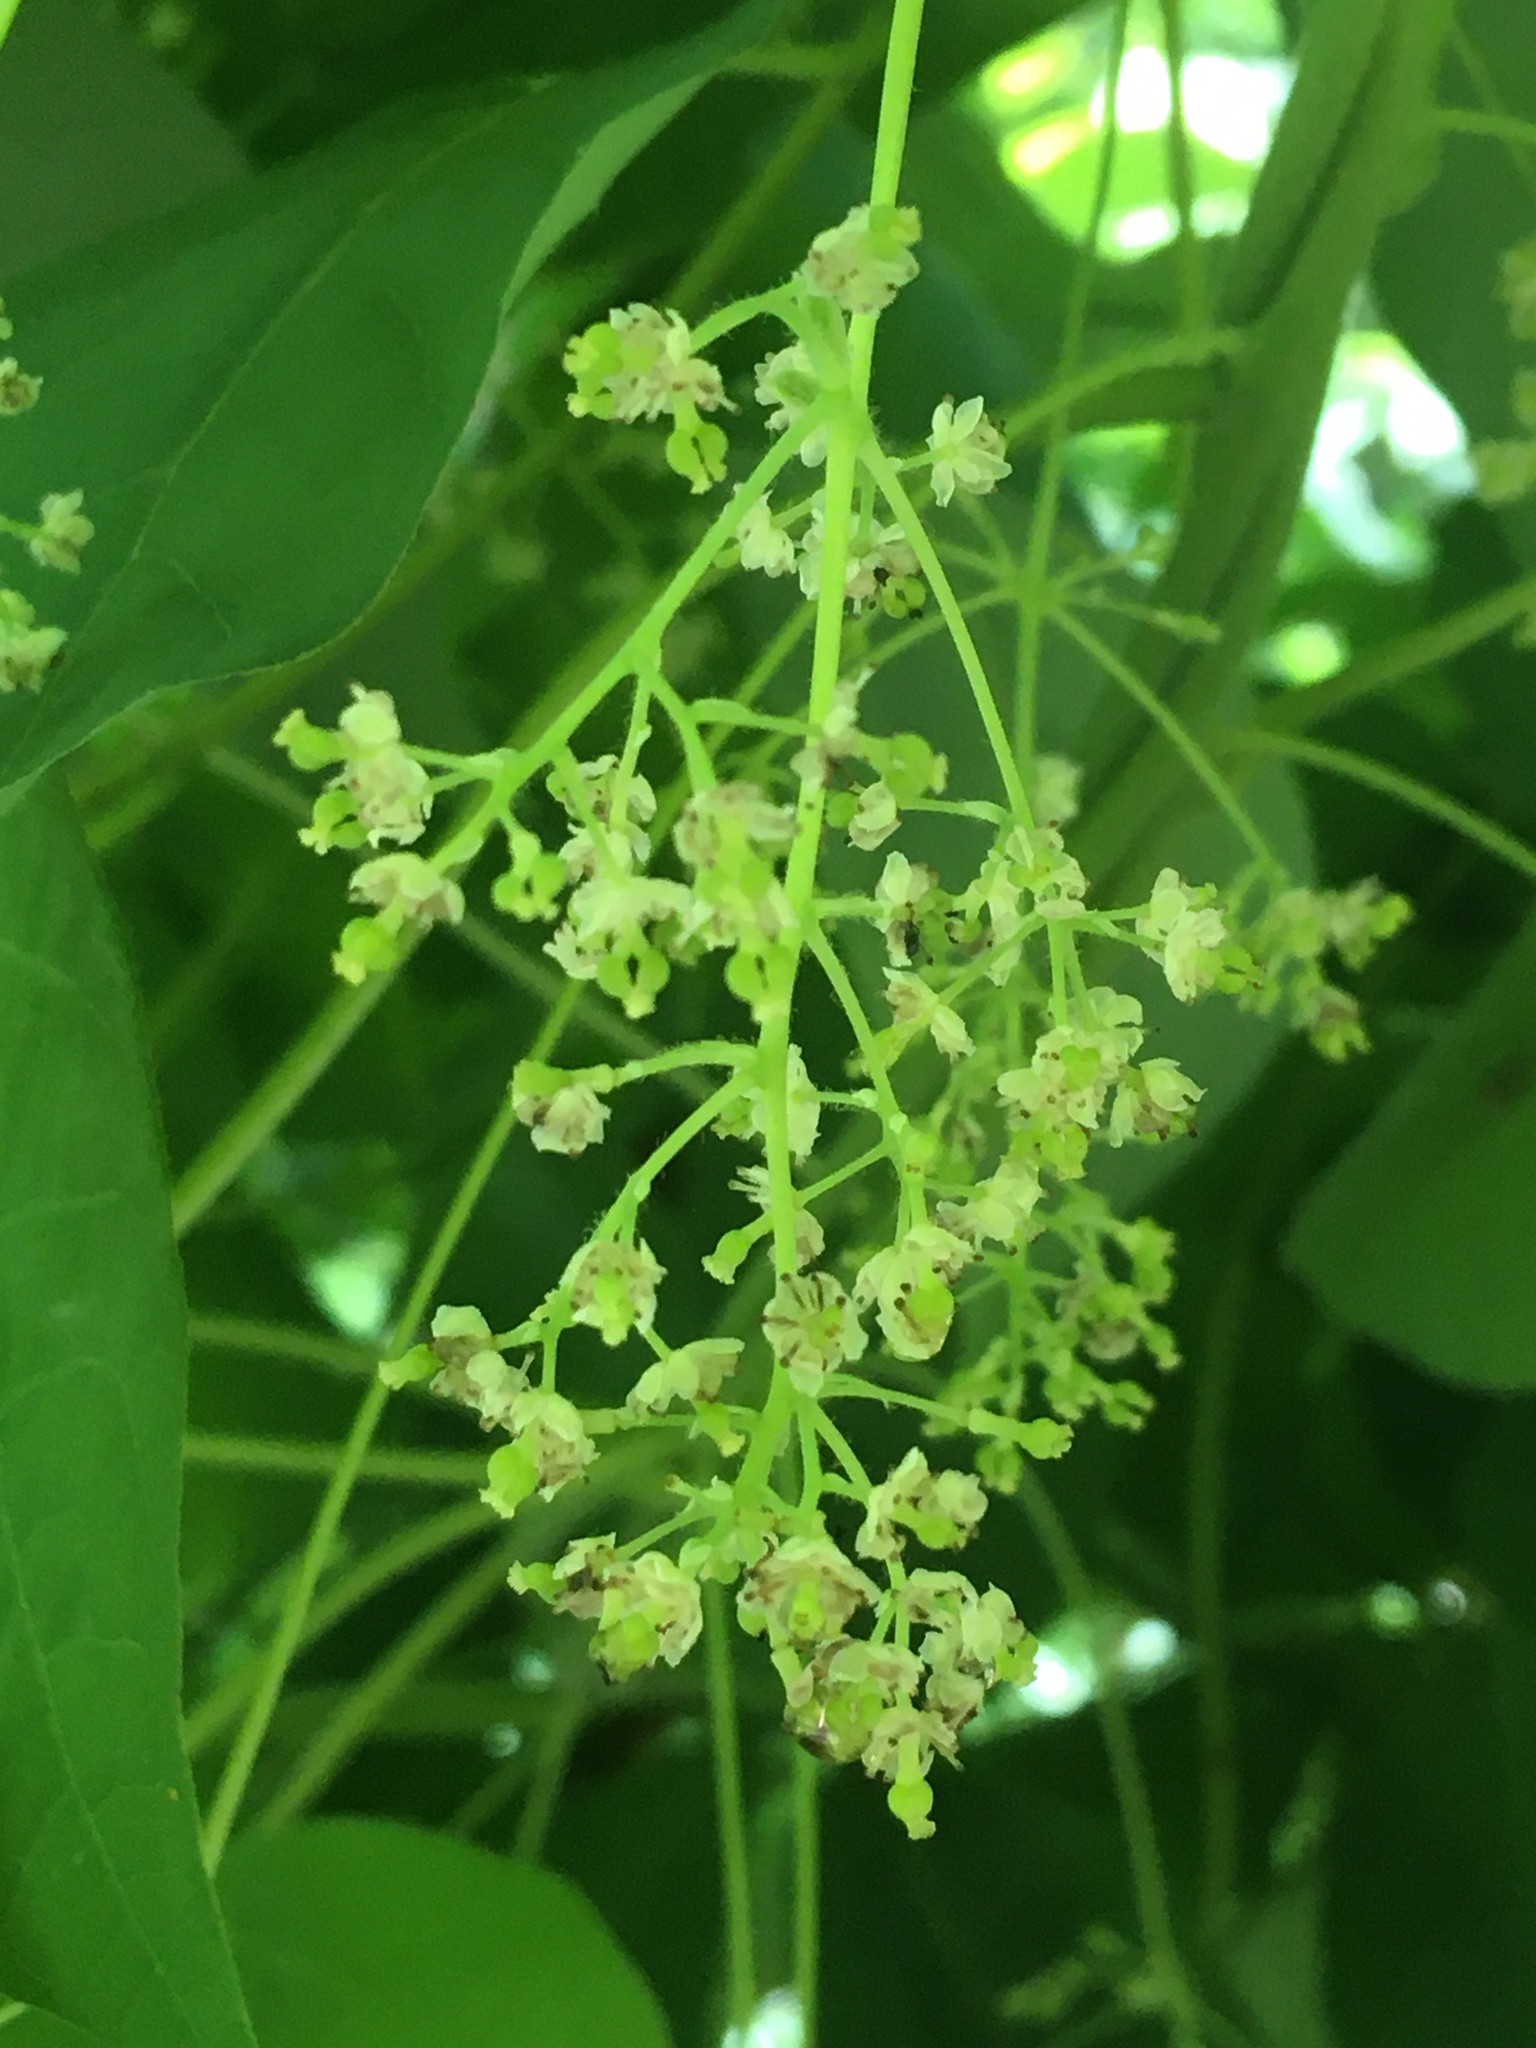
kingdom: Plantae
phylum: Tracheophyta
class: Magnoliopsida
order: Ranunculales
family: Menispermaceae
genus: Menispermum
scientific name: Menispermum canadense
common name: Moonseed
